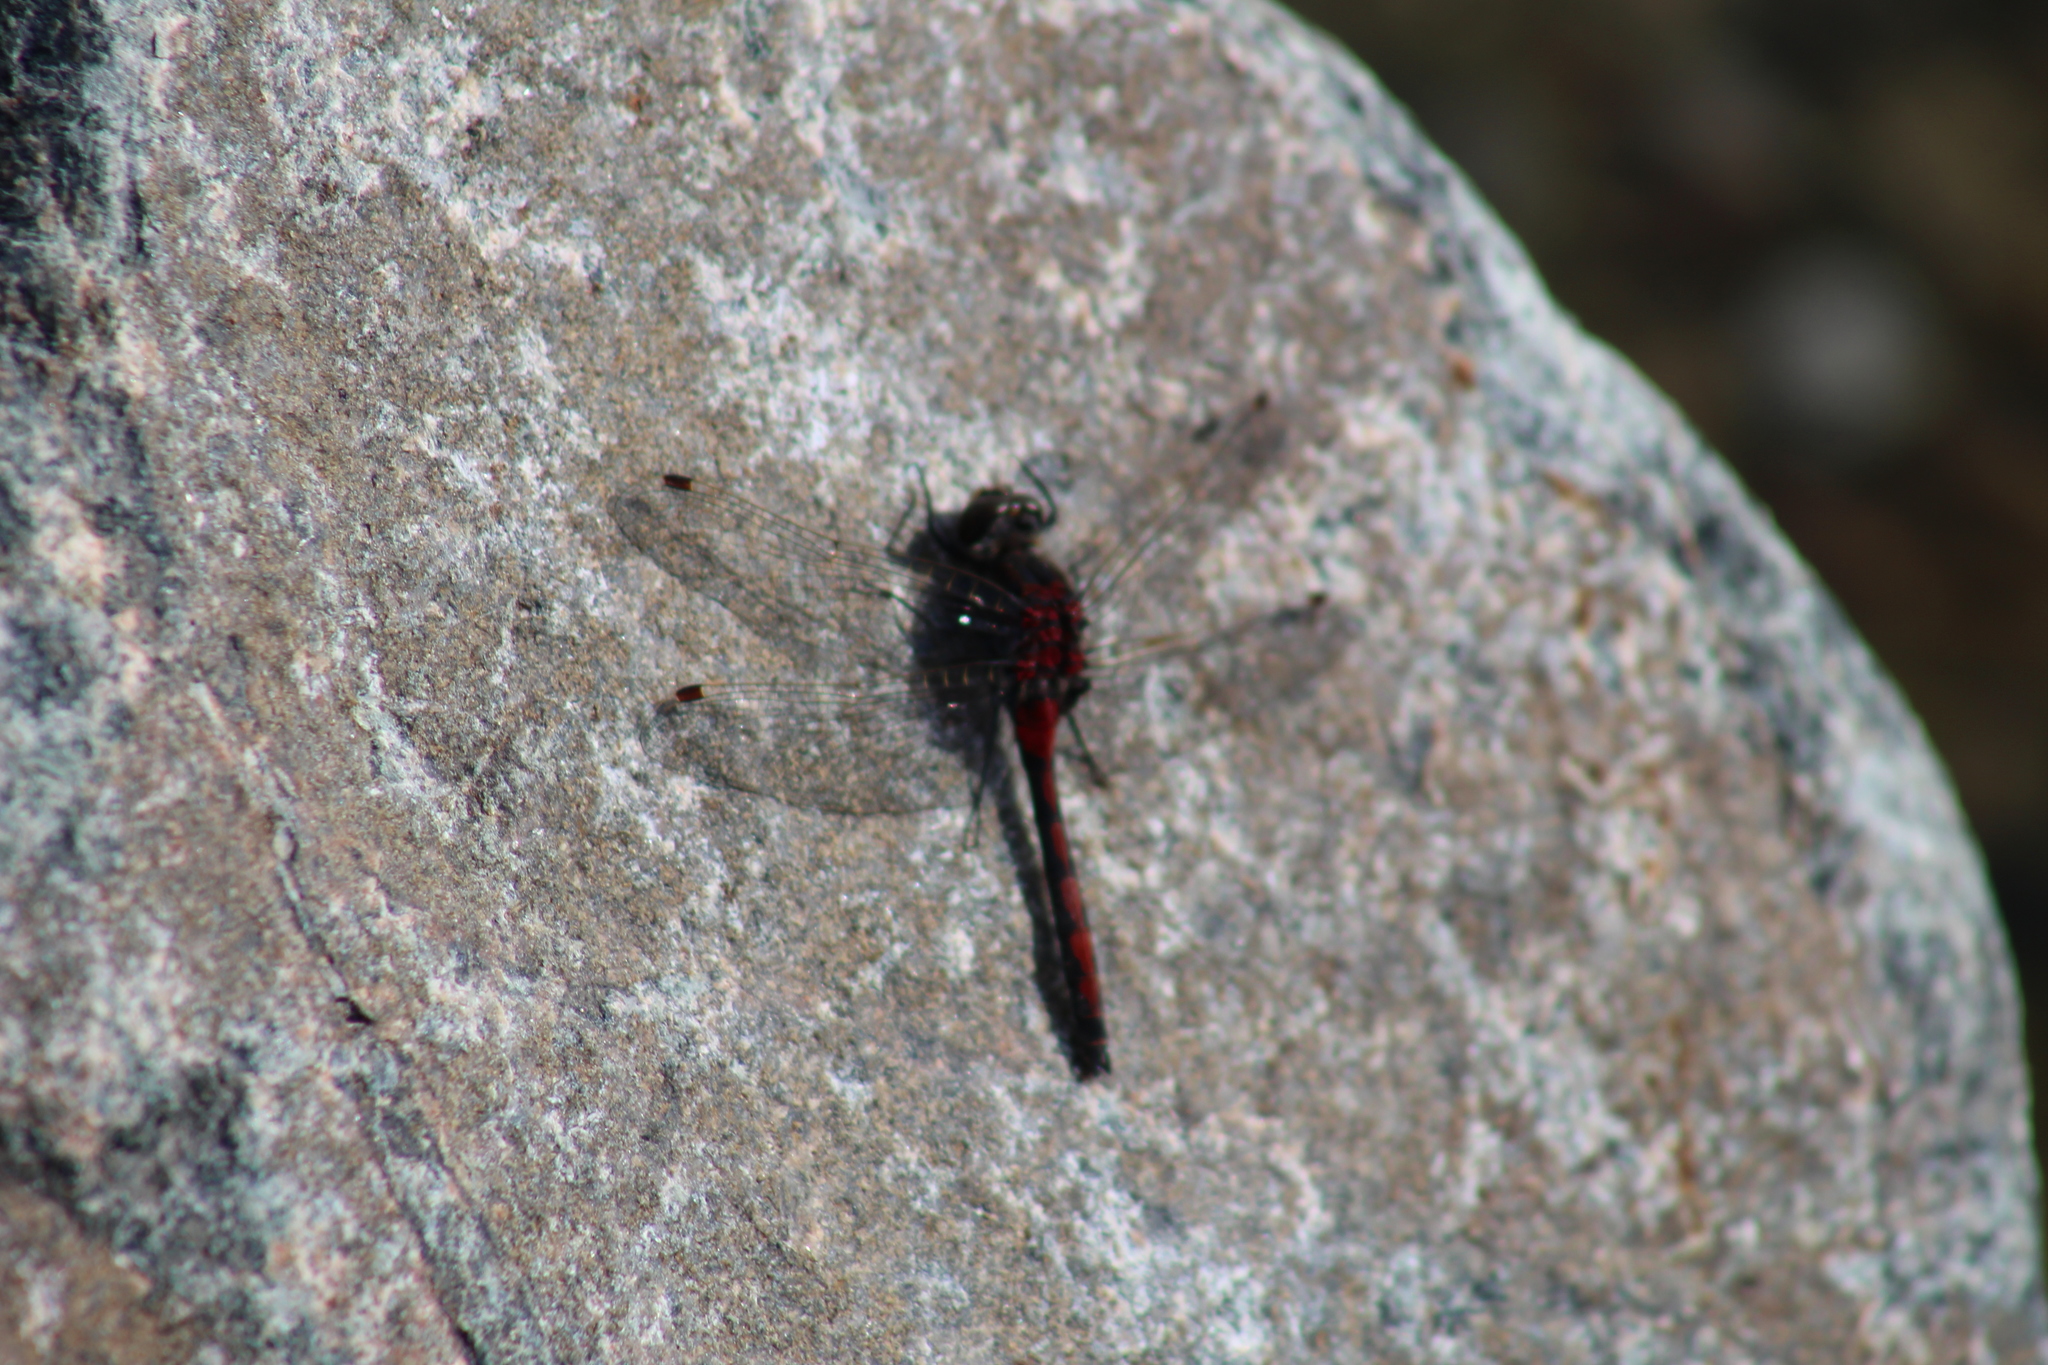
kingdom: Animalia
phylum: Arthropoda
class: Insecta
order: Odonata
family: Libellulidae
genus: Leucorrhinia
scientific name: Leucorrhinia hudsonica
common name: Hudsonian whiteface
